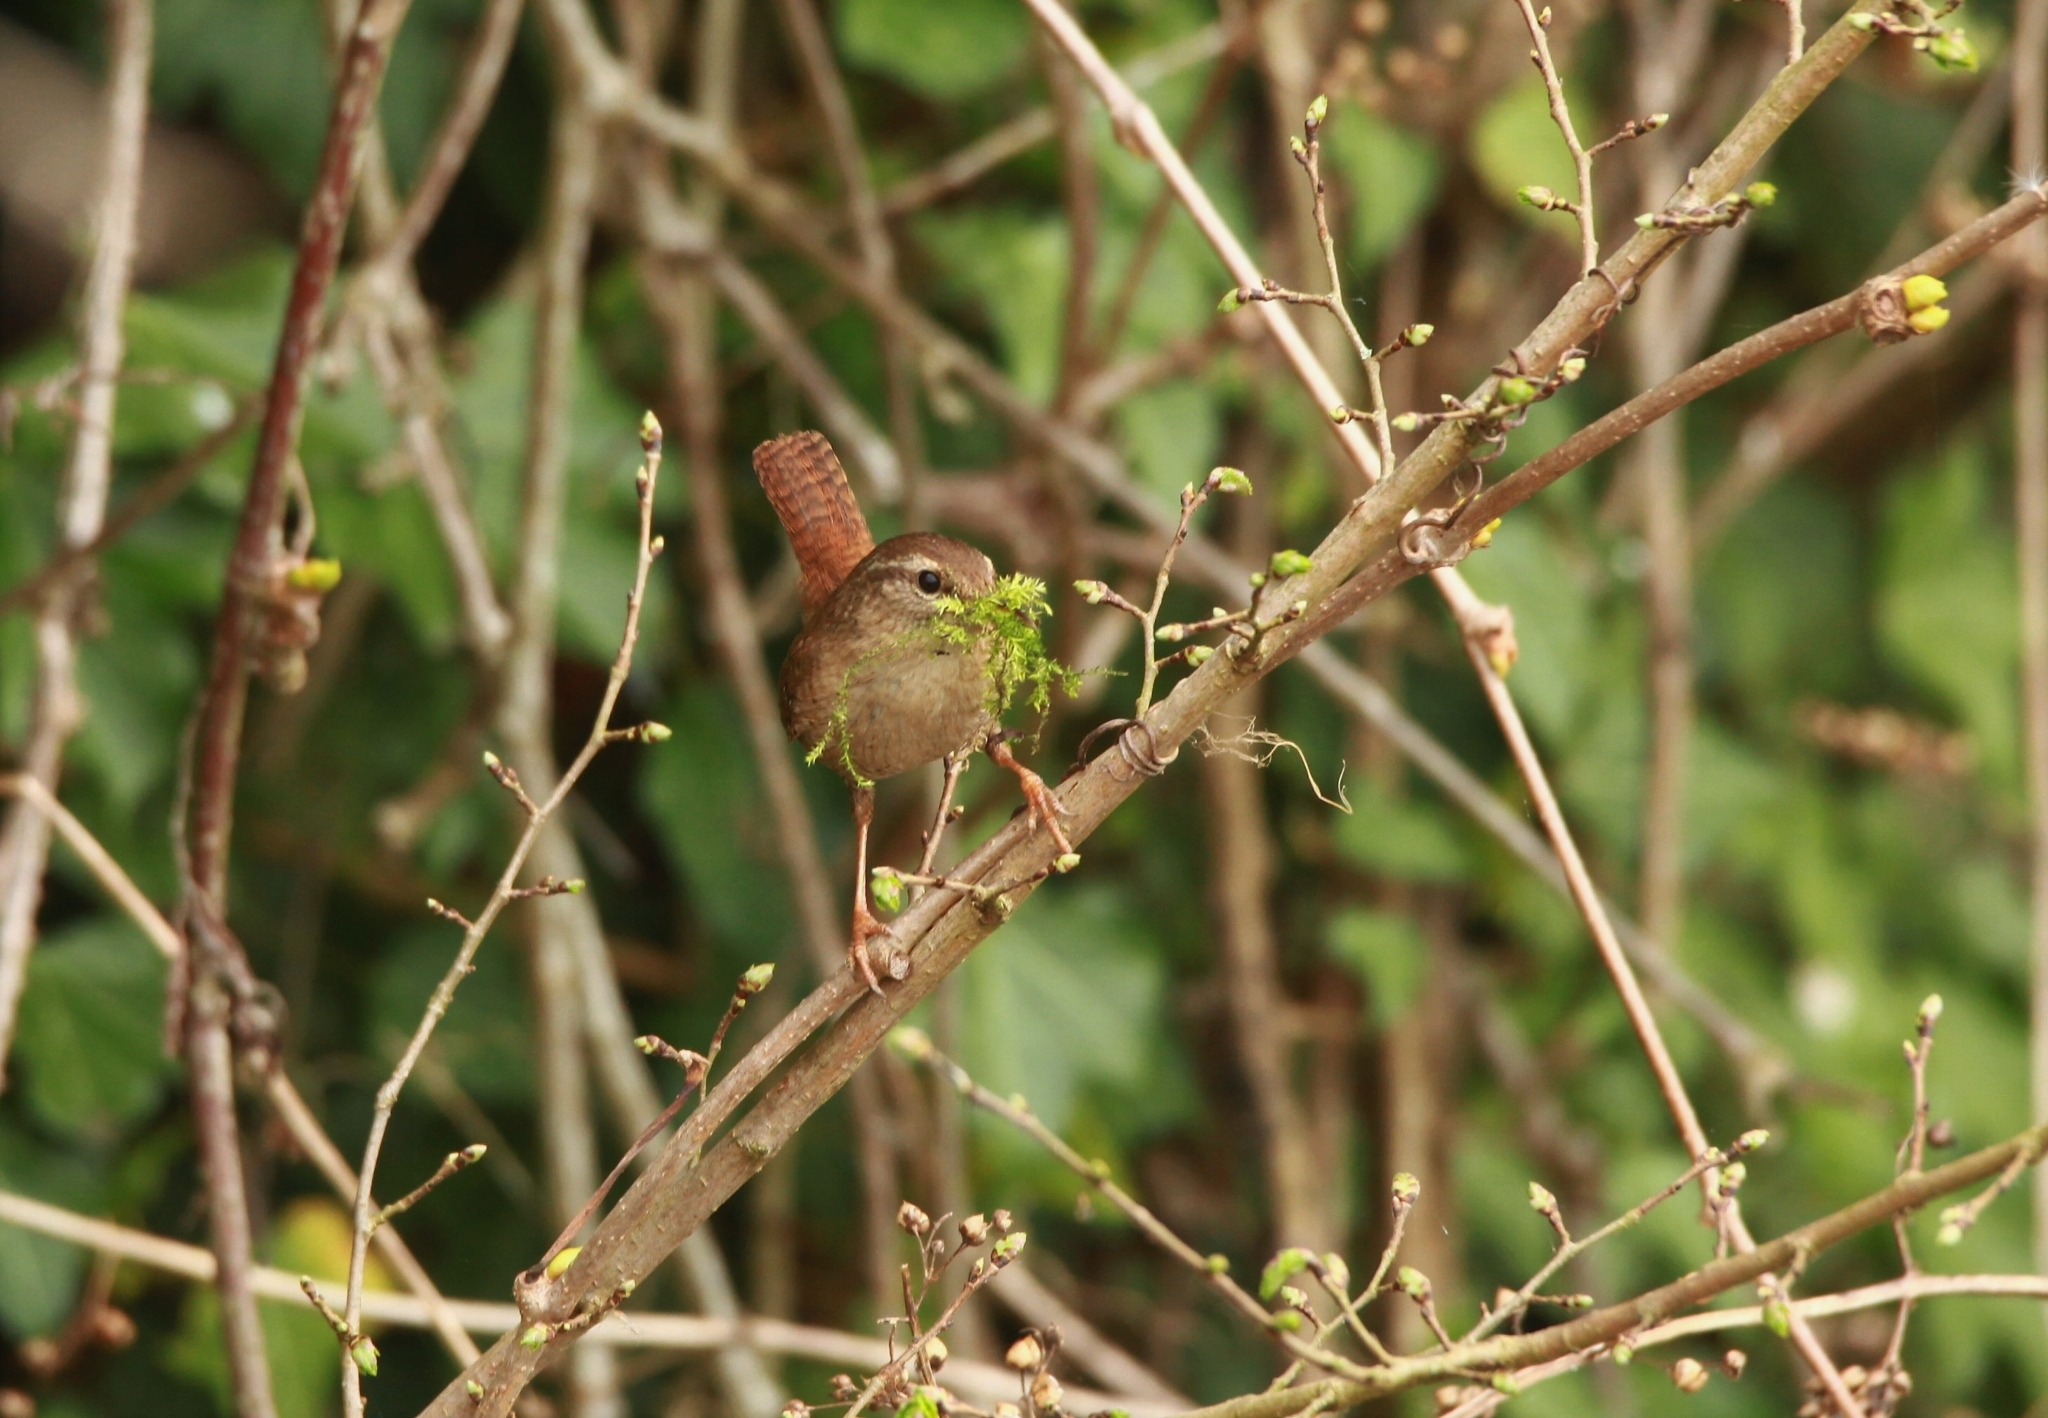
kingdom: Animalia
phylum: Chordata
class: Aves
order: Passeriformes
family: Troglodytidae
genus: Troglodytes
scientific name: Troglodytes troglodytes
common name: Eurasian wren
